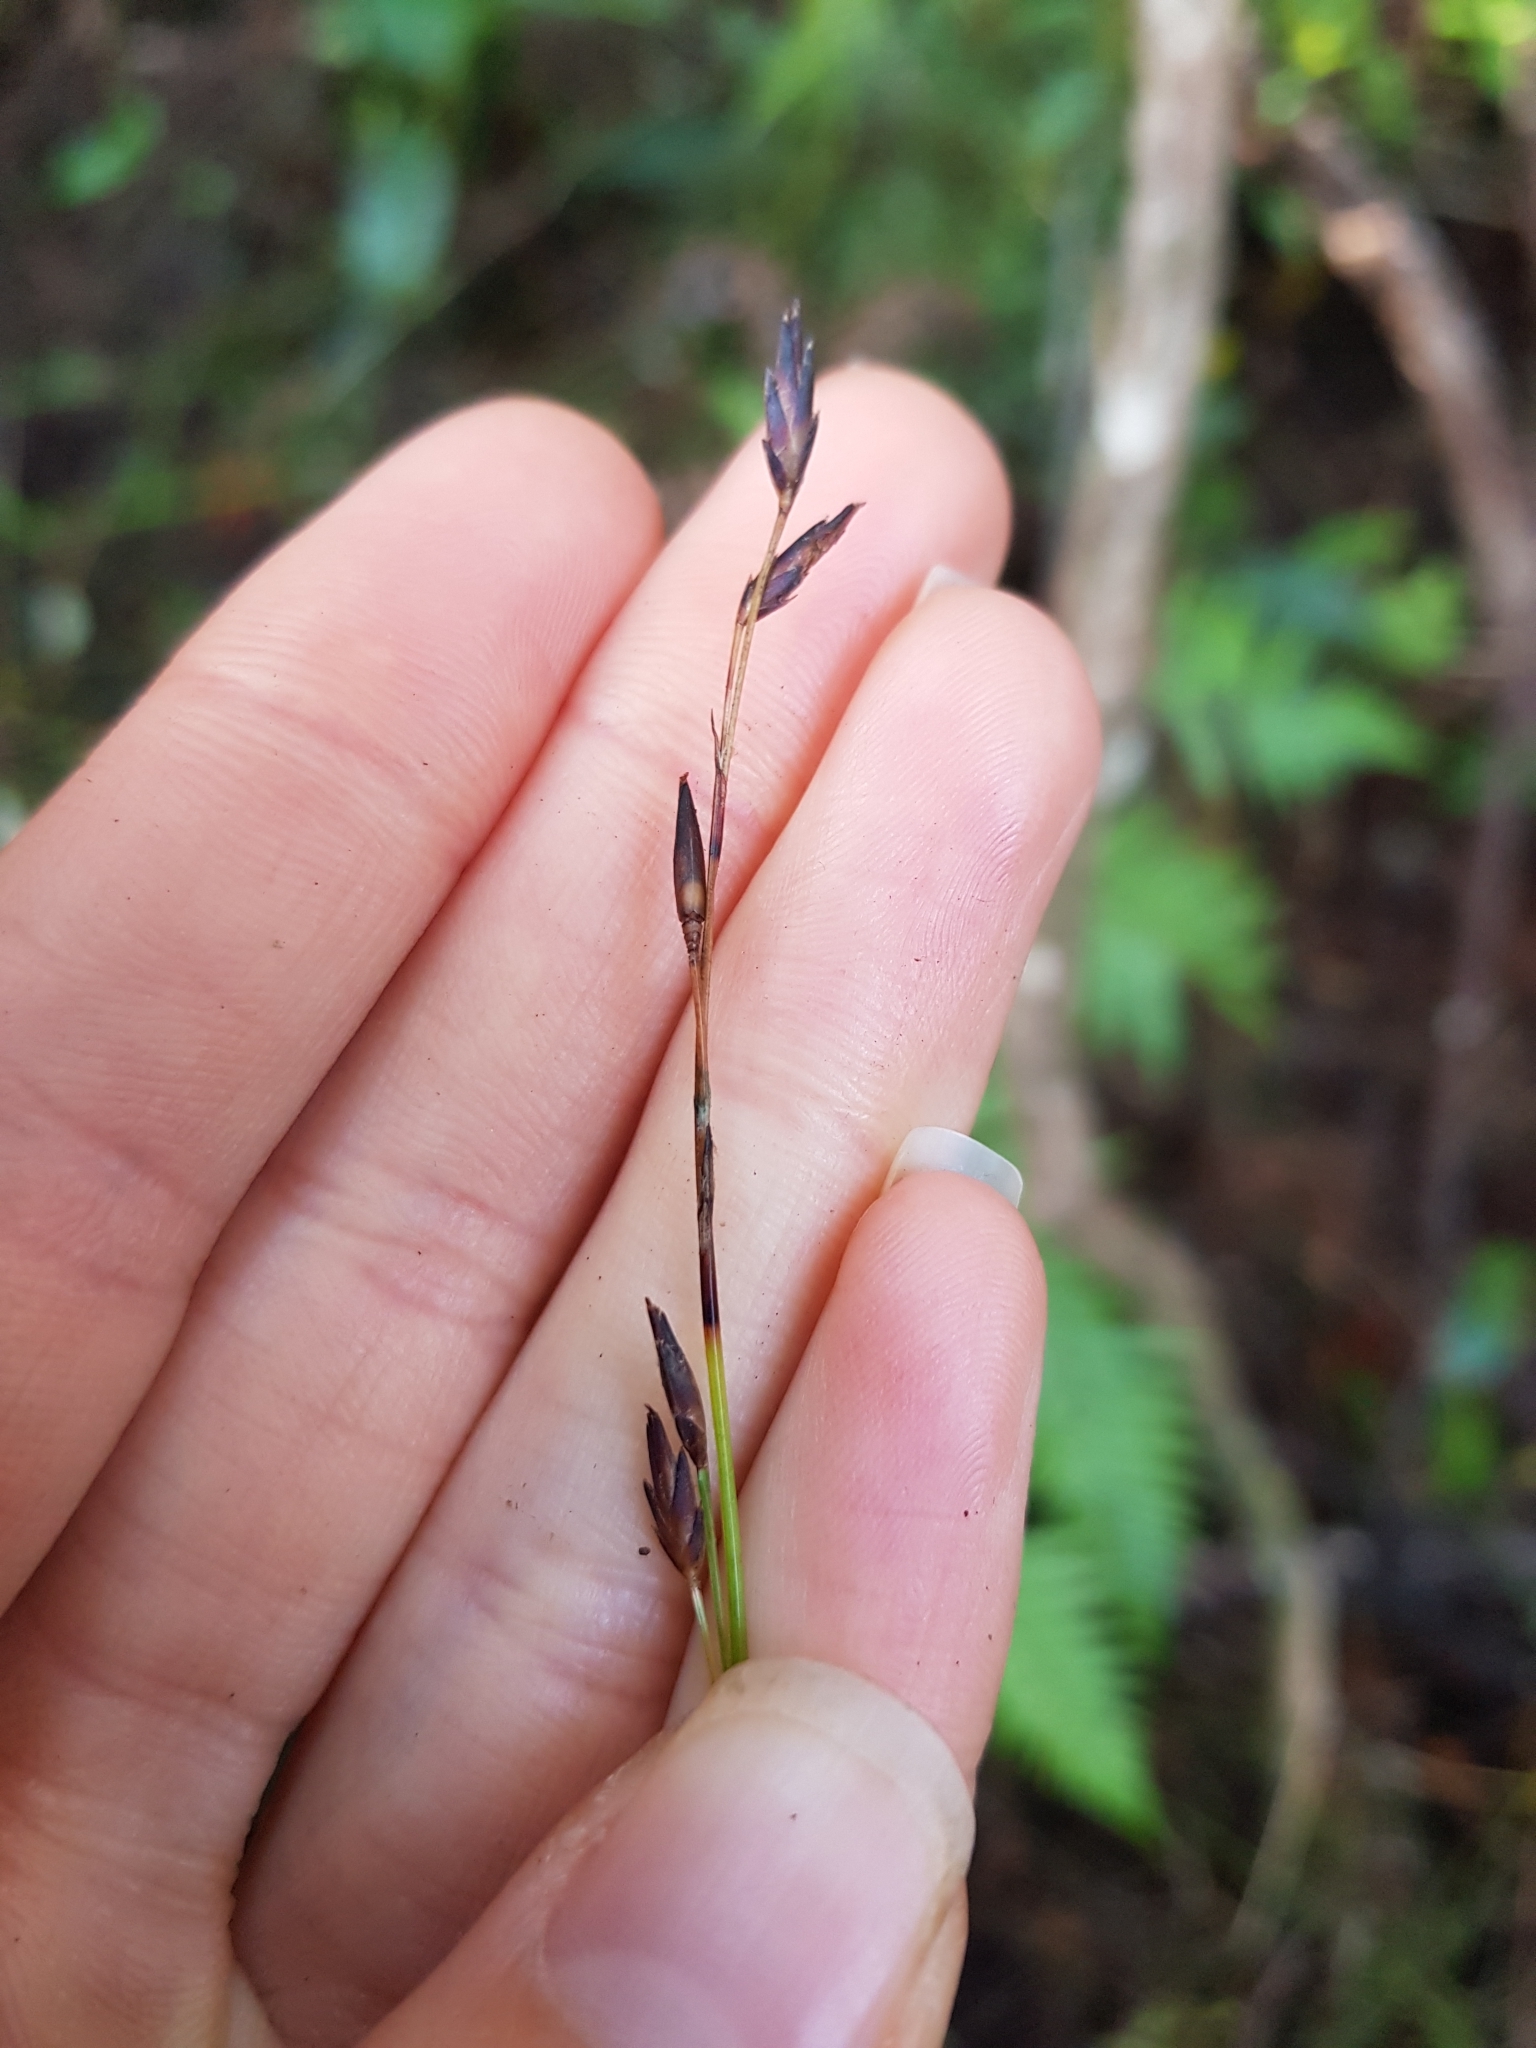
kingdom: Plantae
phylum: Tracheophyta
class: Liliopsida
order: Poales
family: Cyperaceae
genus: Schoenus
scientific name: Schoenus tendo
